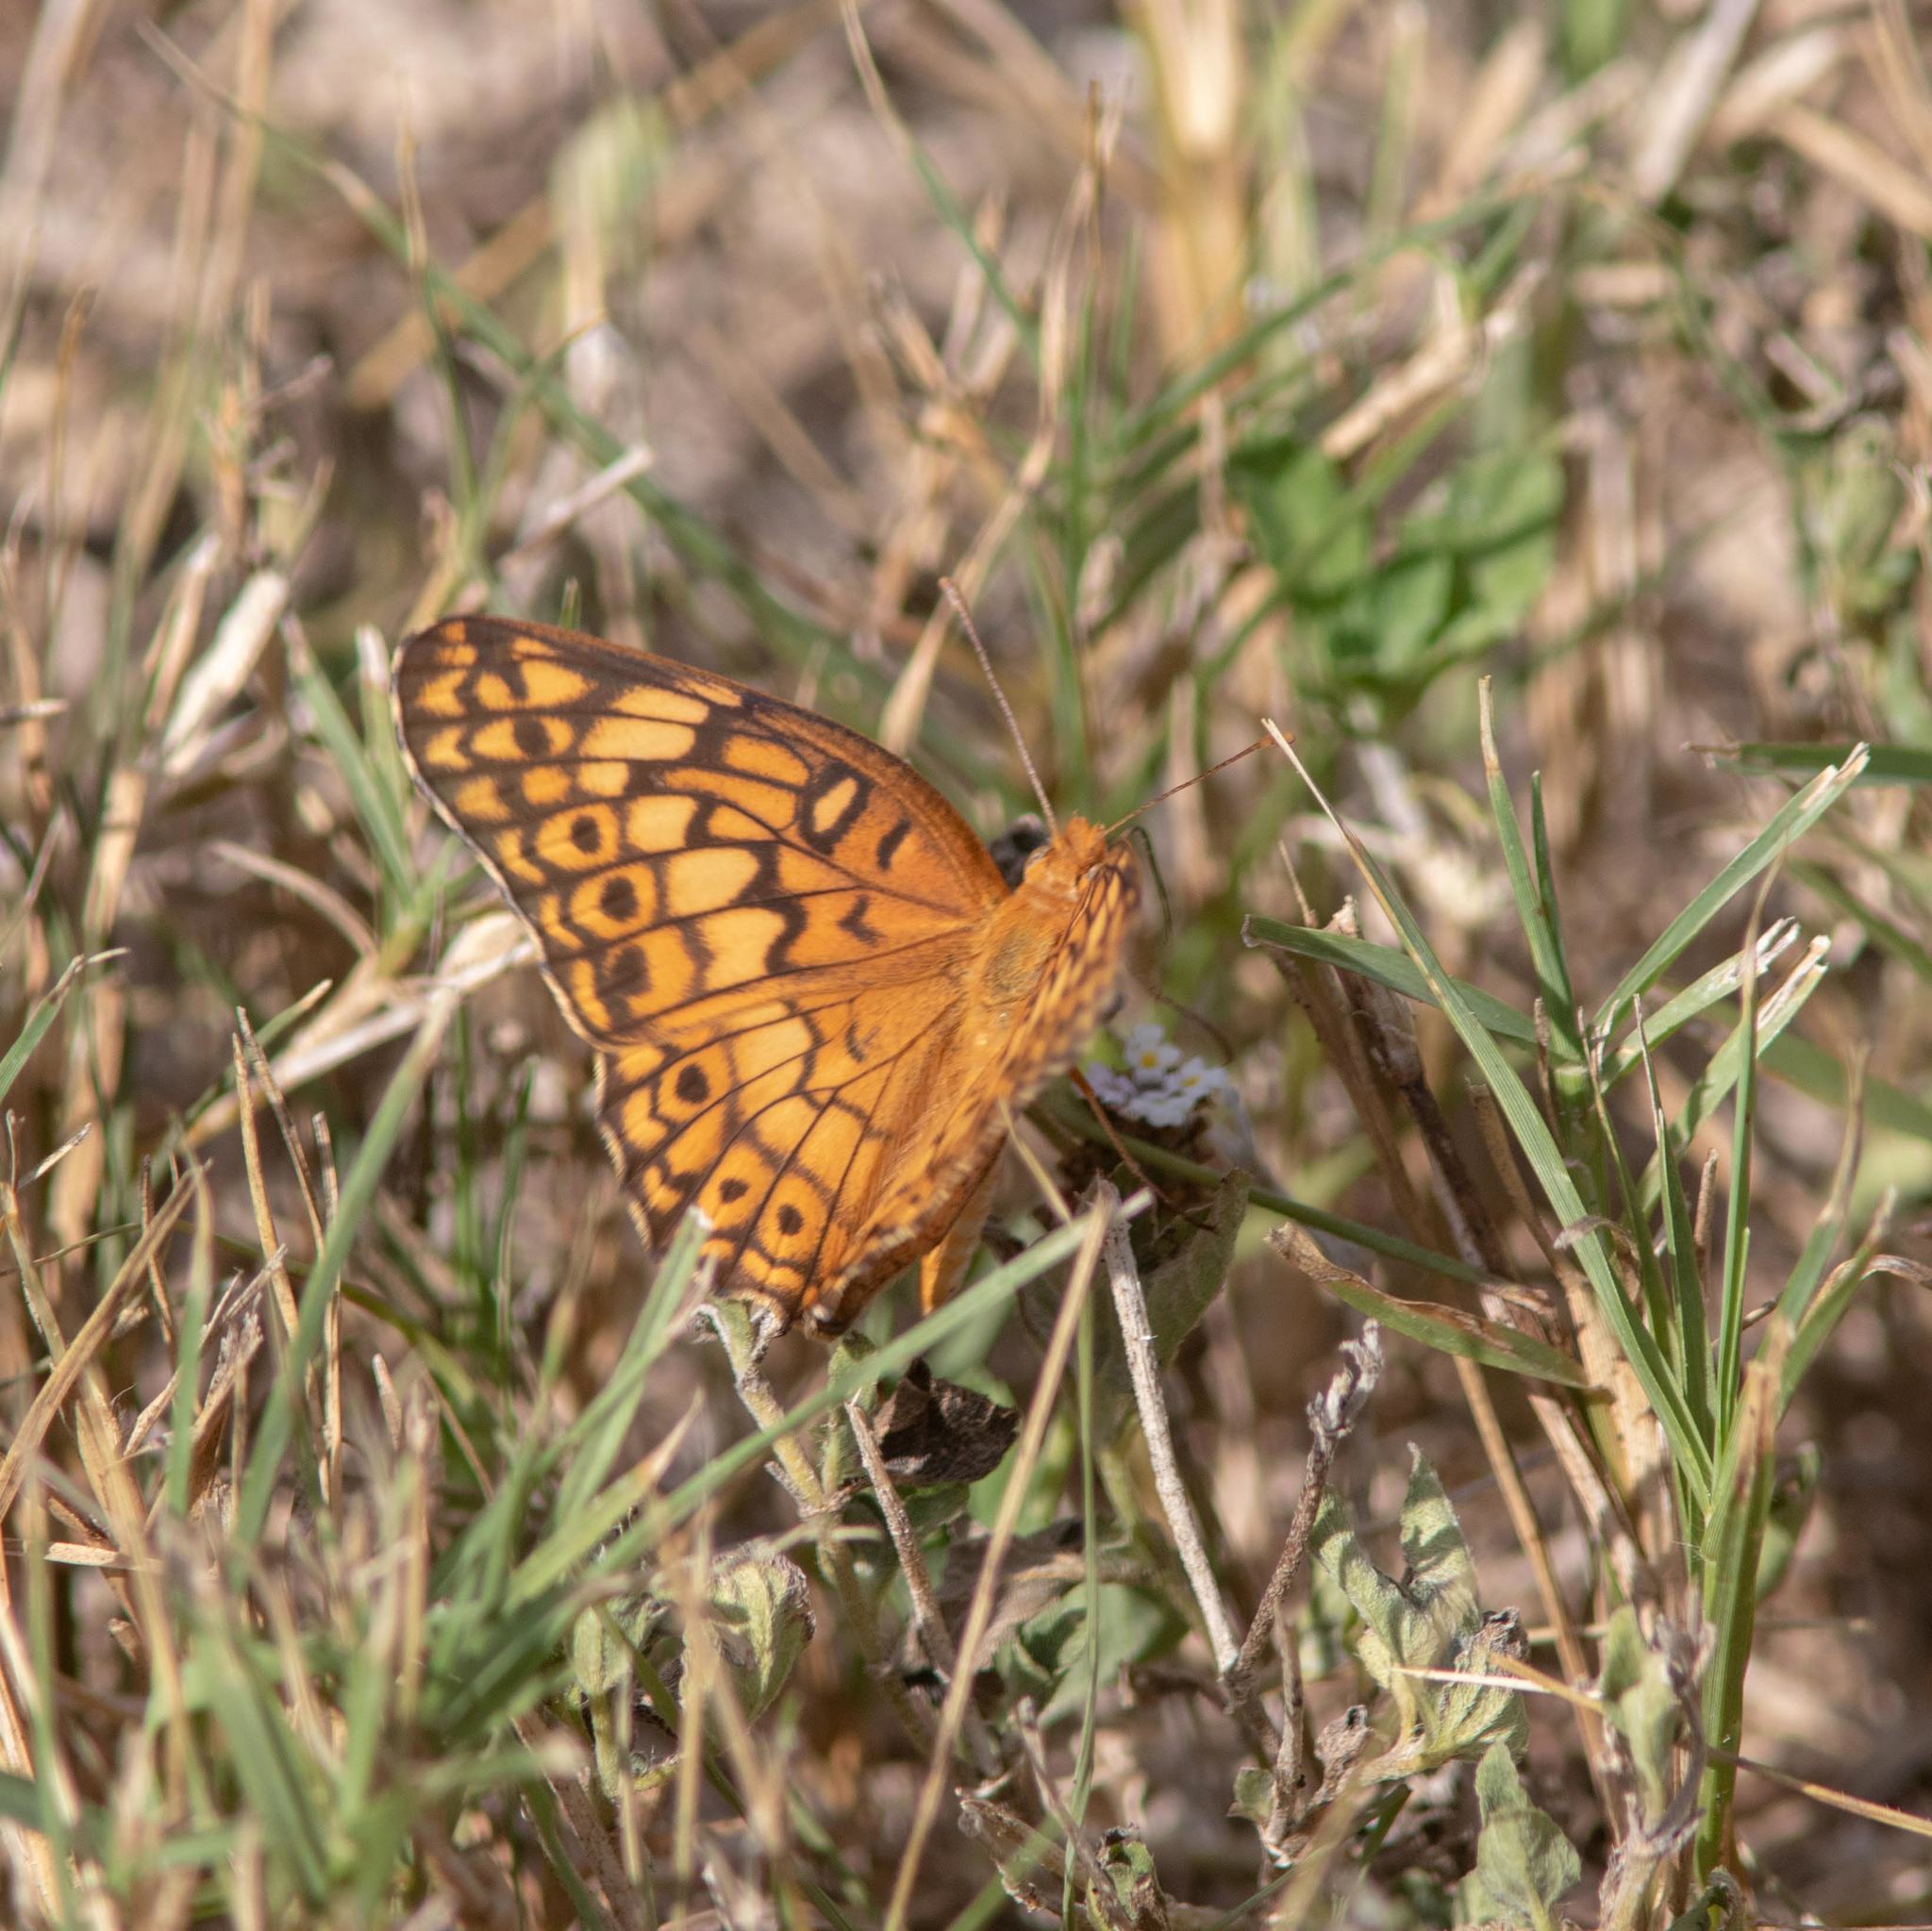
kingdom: Animalia
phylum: Arthropoda
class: Insecta
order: Lepidoptera
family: Nymphalidae
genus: Euptoieta
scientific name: Euptoieta claudia
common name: Variegated fritillary
